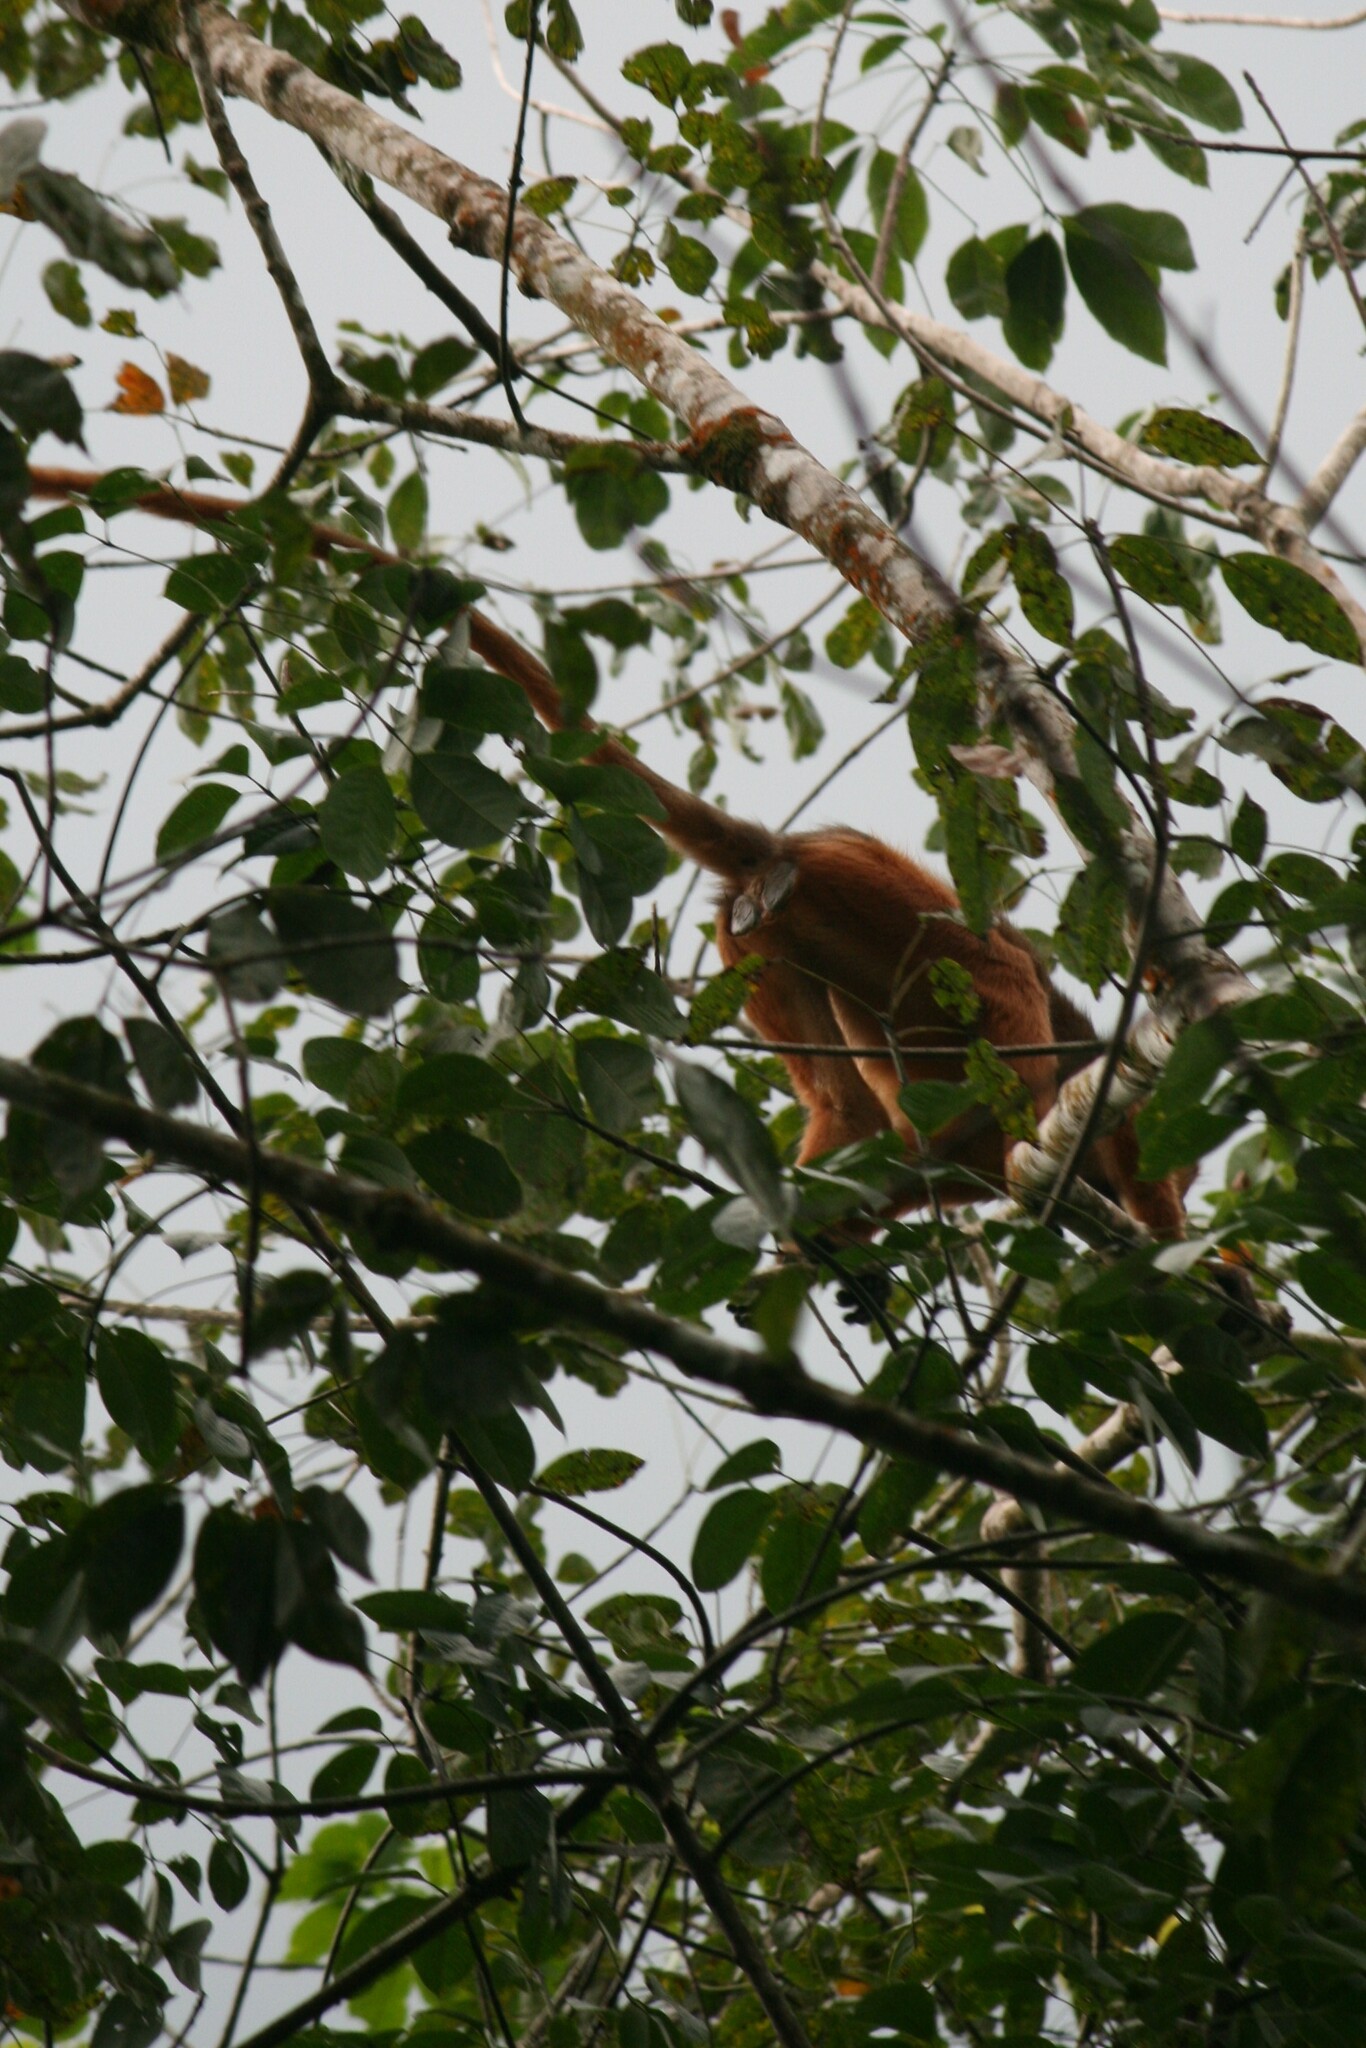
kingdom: Animalia
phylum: Chordata
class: Mammalia
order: Primates
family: Cercopithecidae
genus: Presbytis
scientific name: Presbytis melalophos
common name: Sumatran surili
